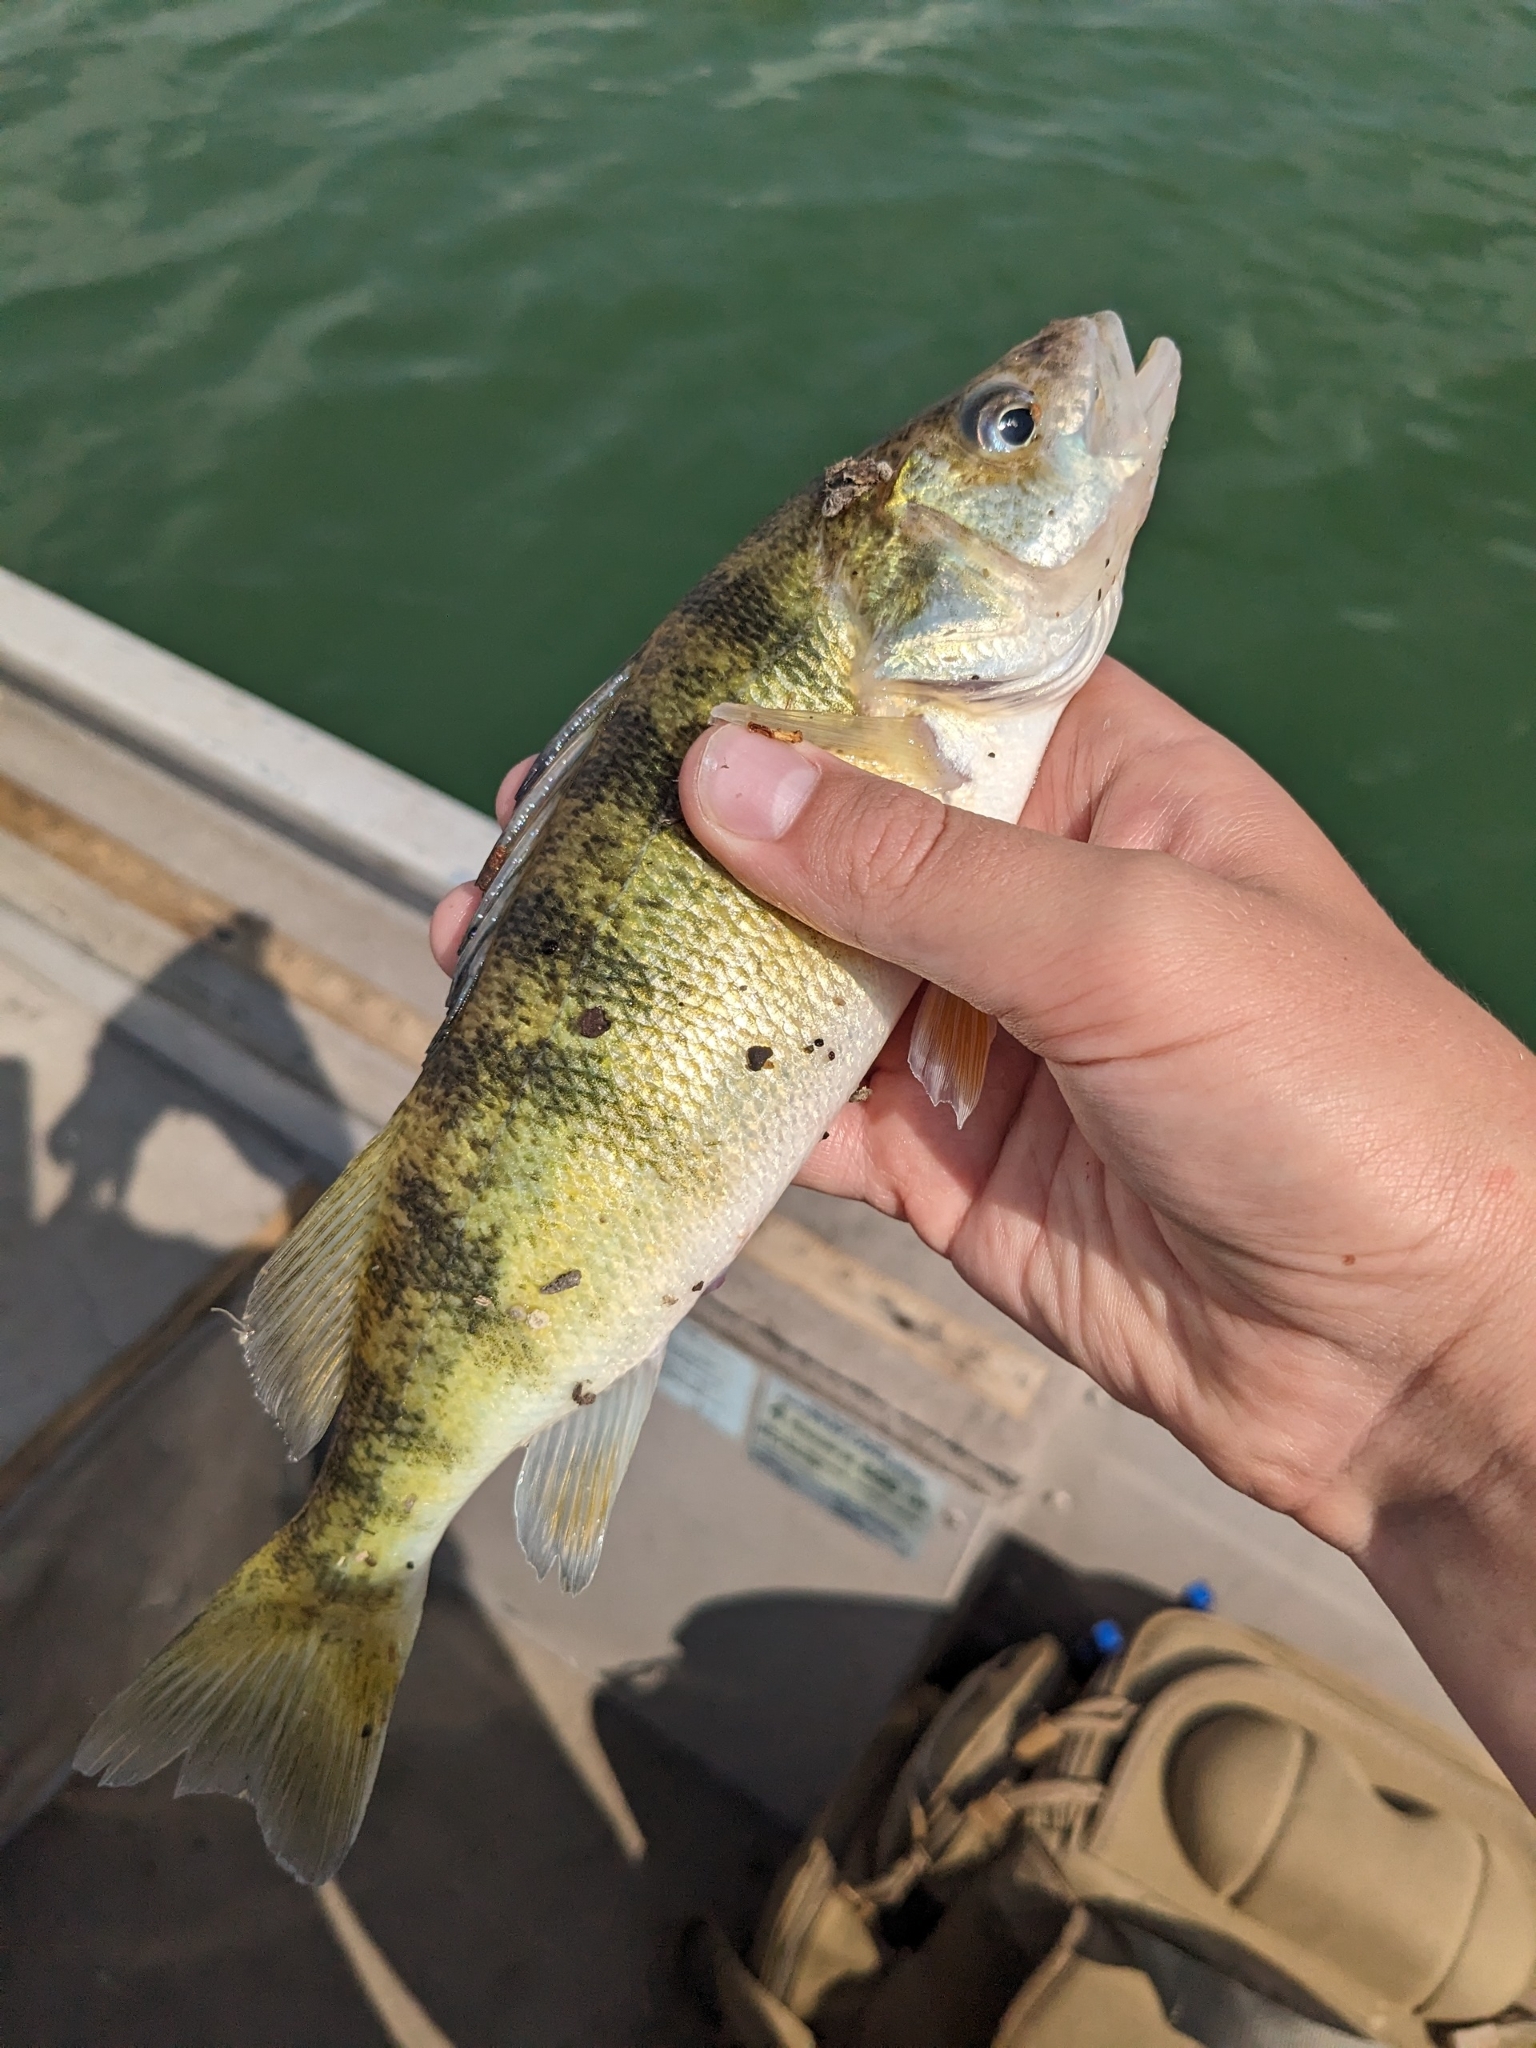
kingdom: Animalia
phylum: Chordata
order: Perciformes
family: Percidae
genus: Perca
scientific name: Perca flavescens
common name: Yellow perch
